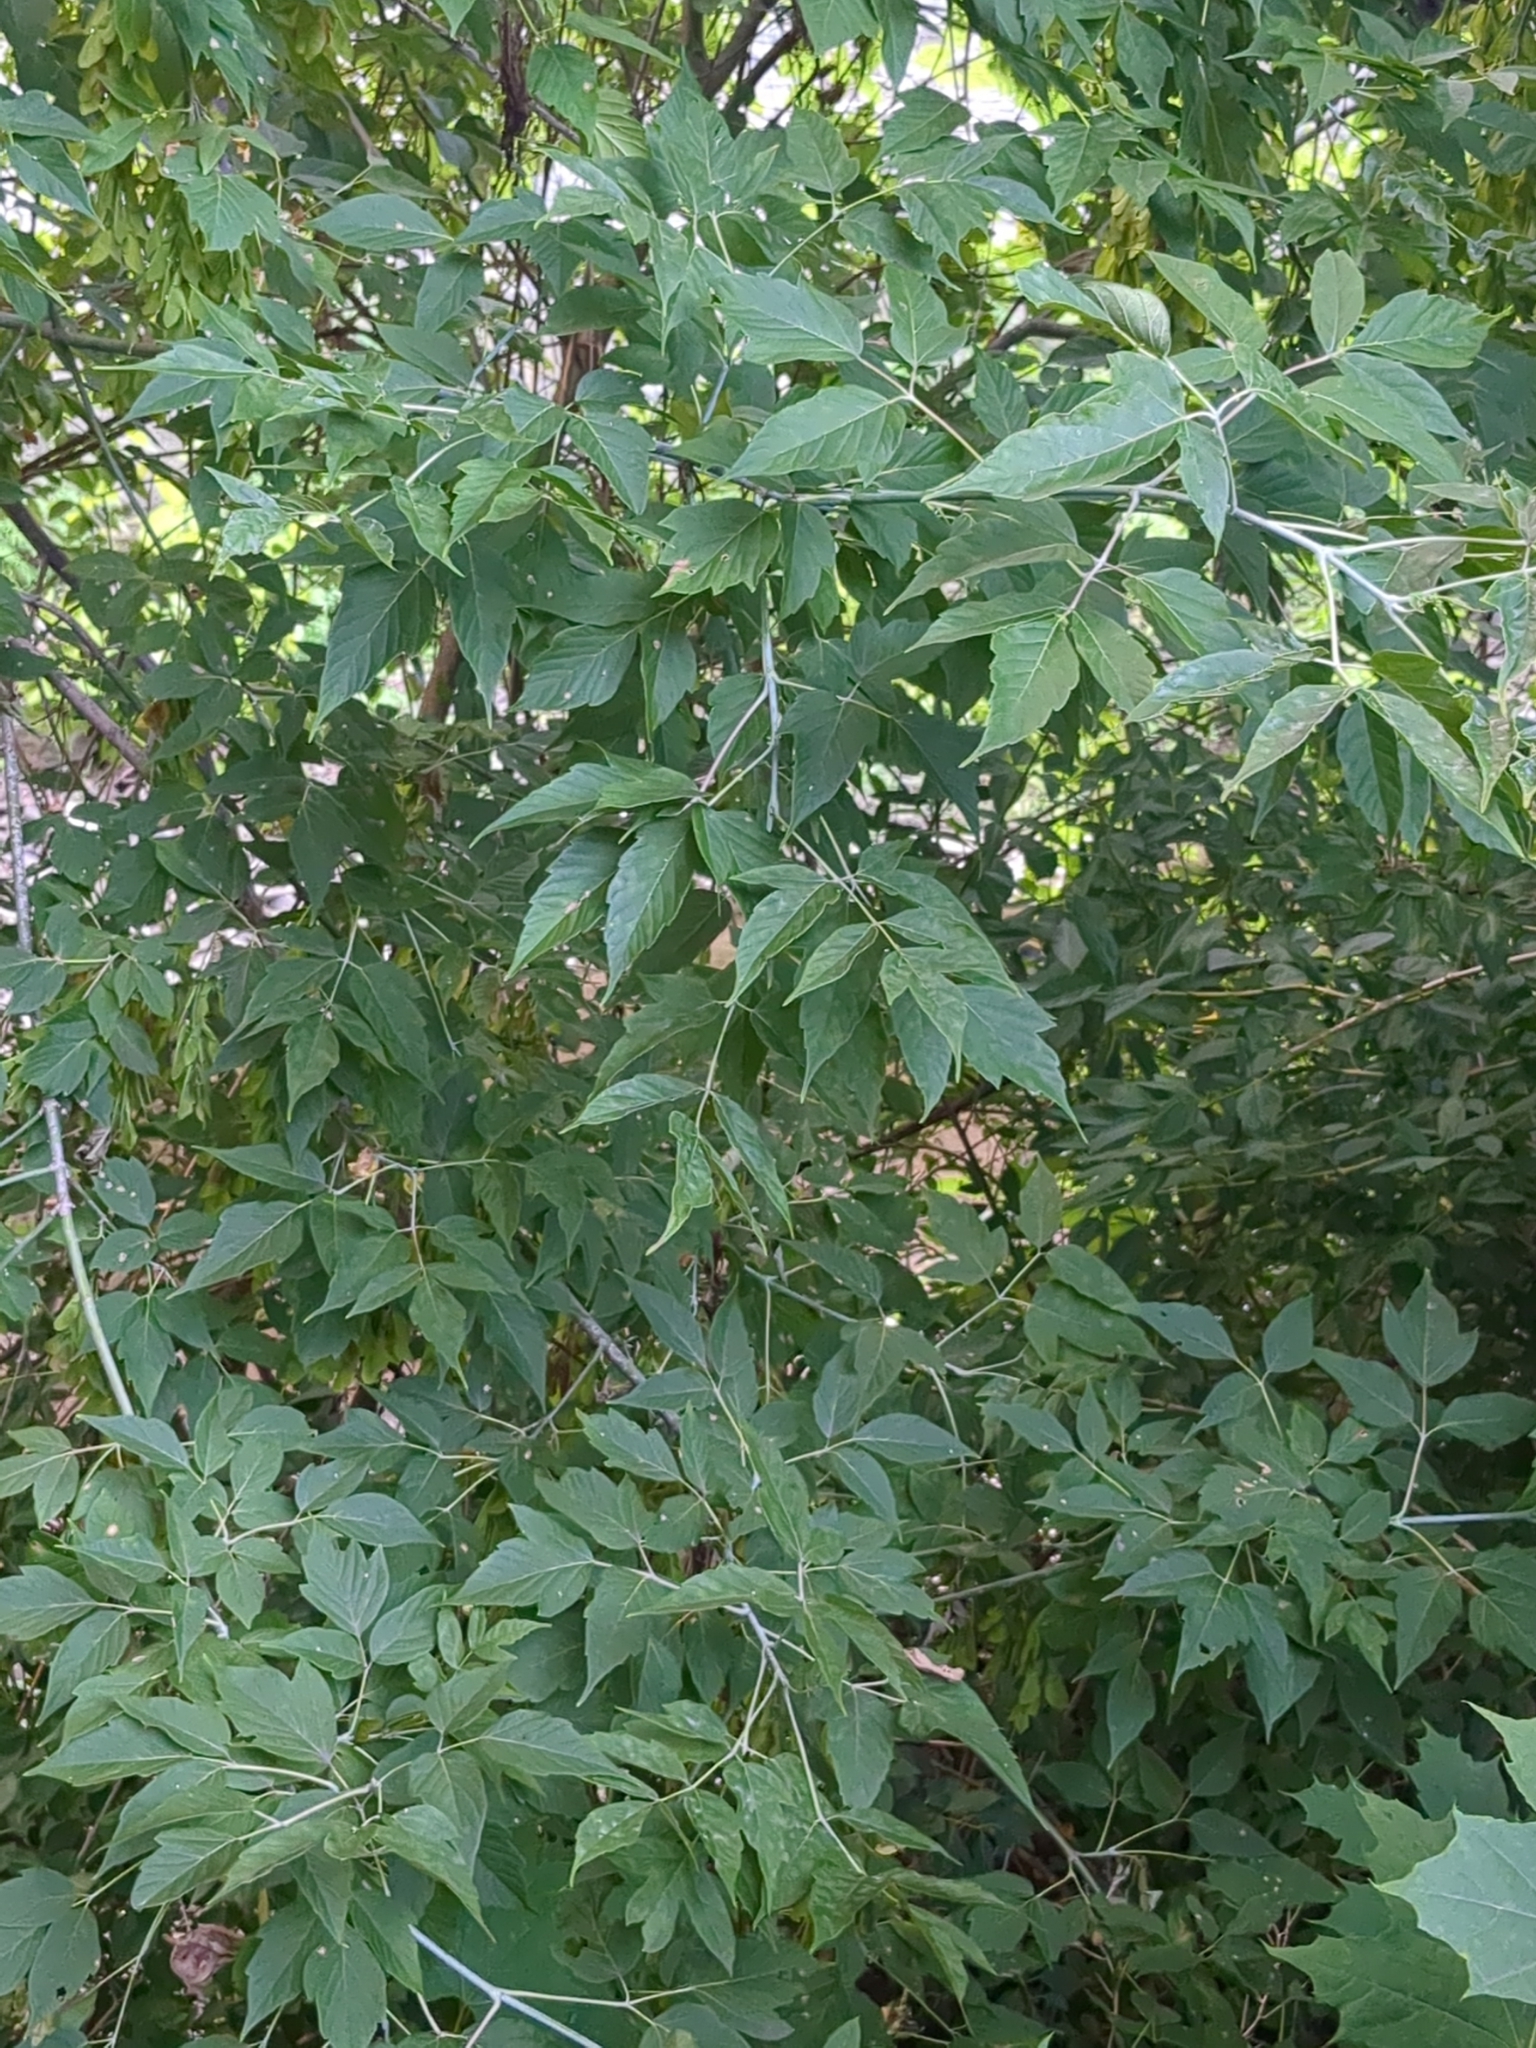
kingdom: Plantae
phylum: Tracheophyta
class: Magnoliopsida
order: Sapindales
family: Sapindaceae
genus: Acer
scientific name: Acer negundo
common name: Ashleaf maple
